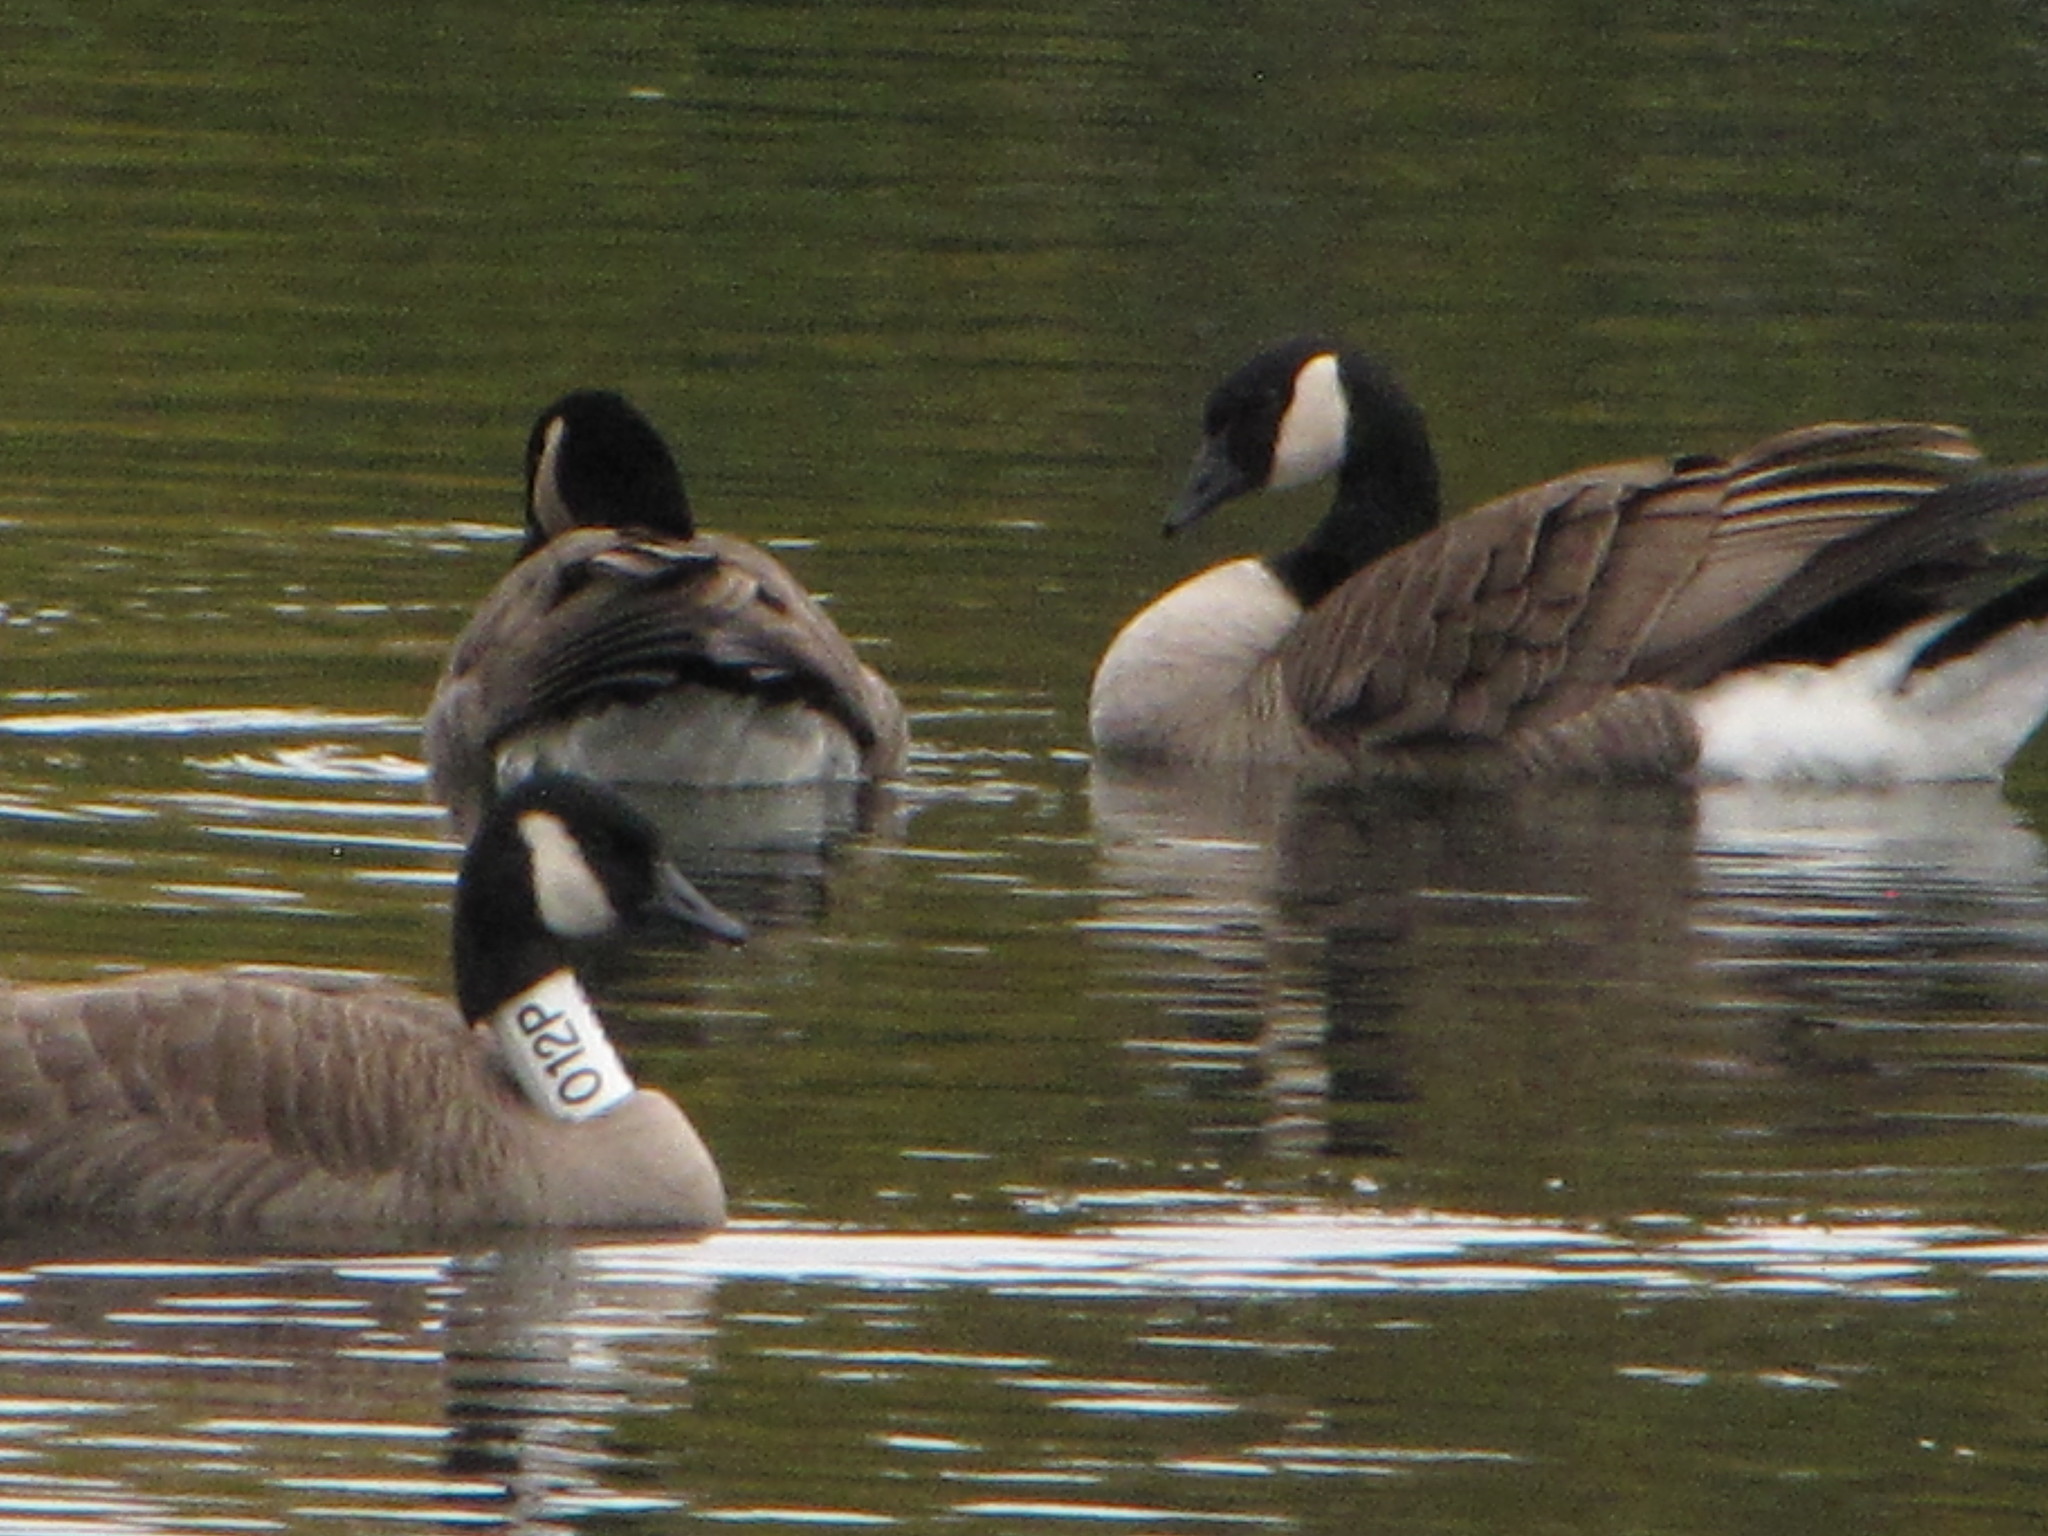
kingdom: Animalia
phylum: Chordata
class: Aves
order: Anseriformes
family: Anatidae
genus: Branta
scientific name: Branta canadensis
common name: Canada goose
